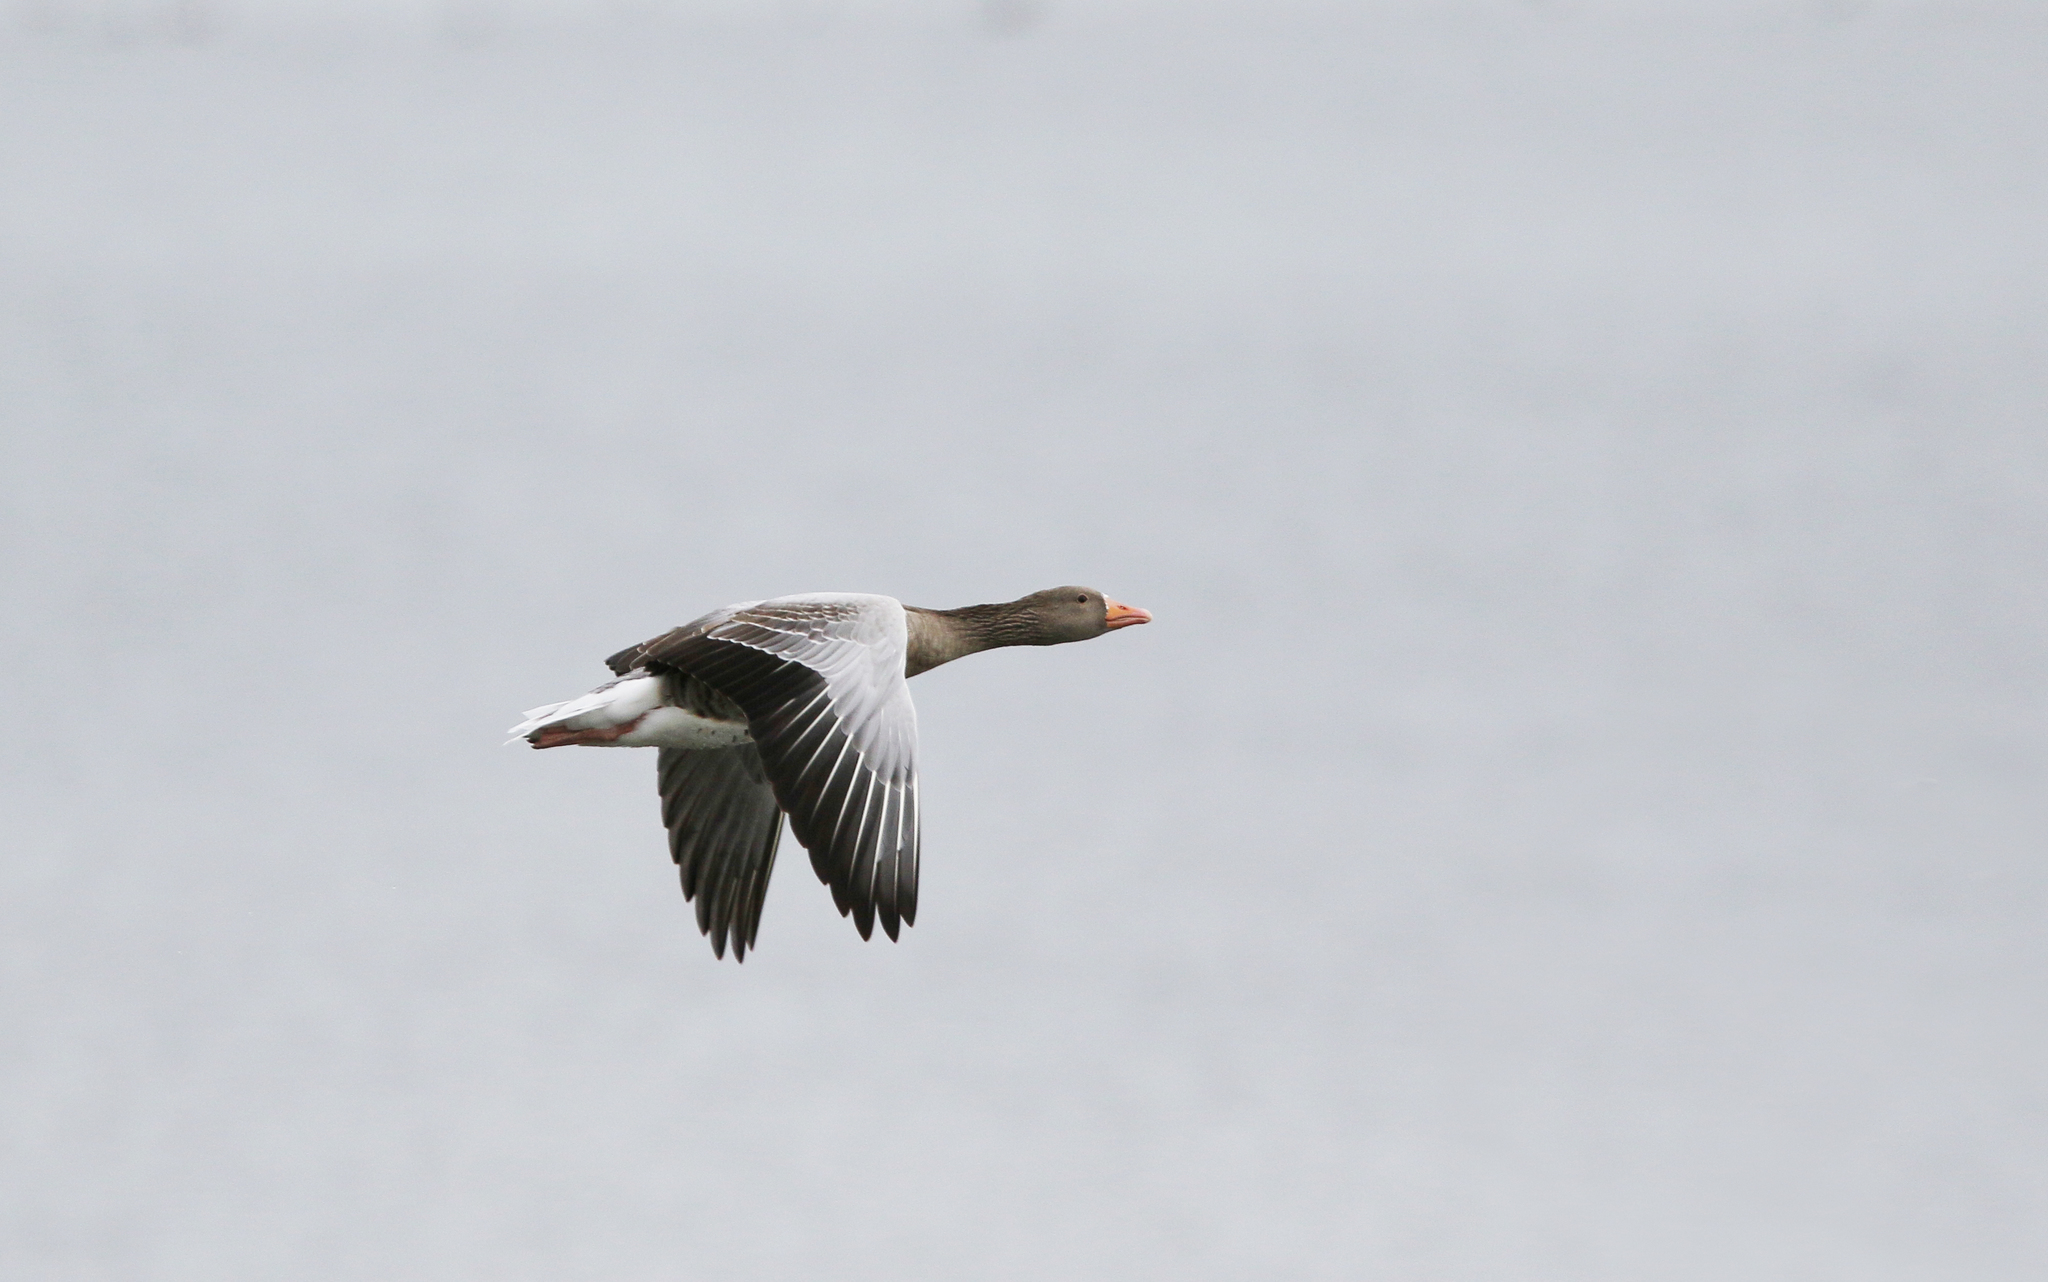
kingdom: Animalia
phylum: Chordata
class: Aves
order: Anseriformes
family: Anatidae
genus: Anser
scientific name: Anser anser
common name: Greylag goose
